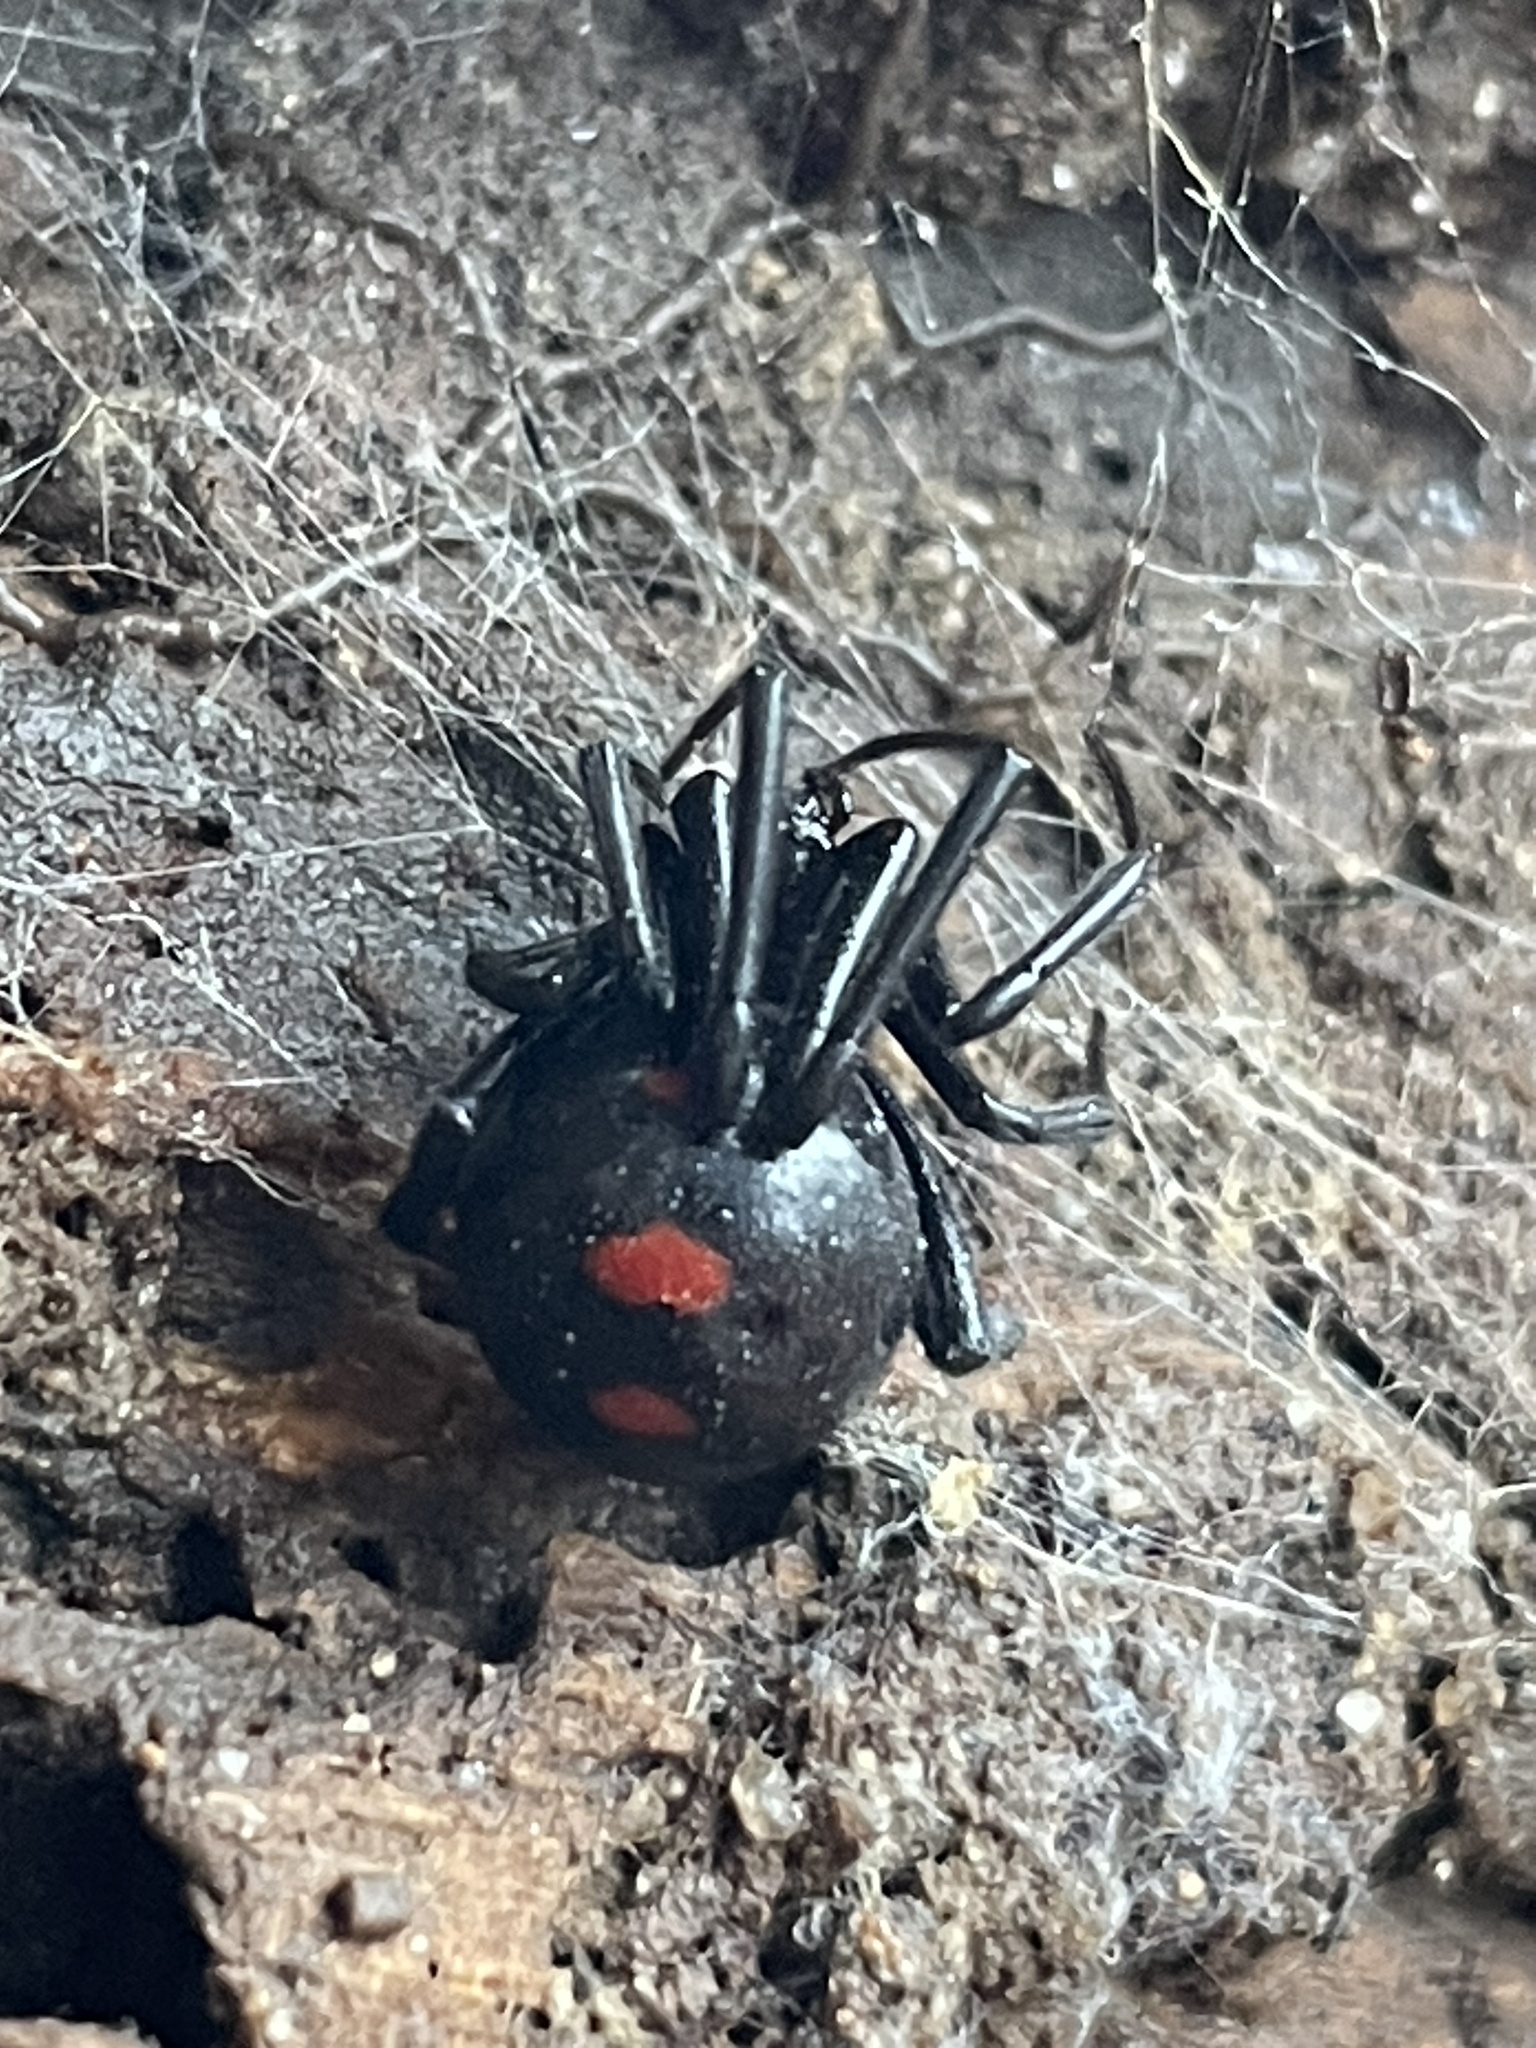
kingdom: Animalia
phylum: Arthropoda
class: Arachnida
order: Araneae
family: Theridiidae
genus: Latrodectus
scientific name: Latrodectus variolus
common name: Northern black widow
